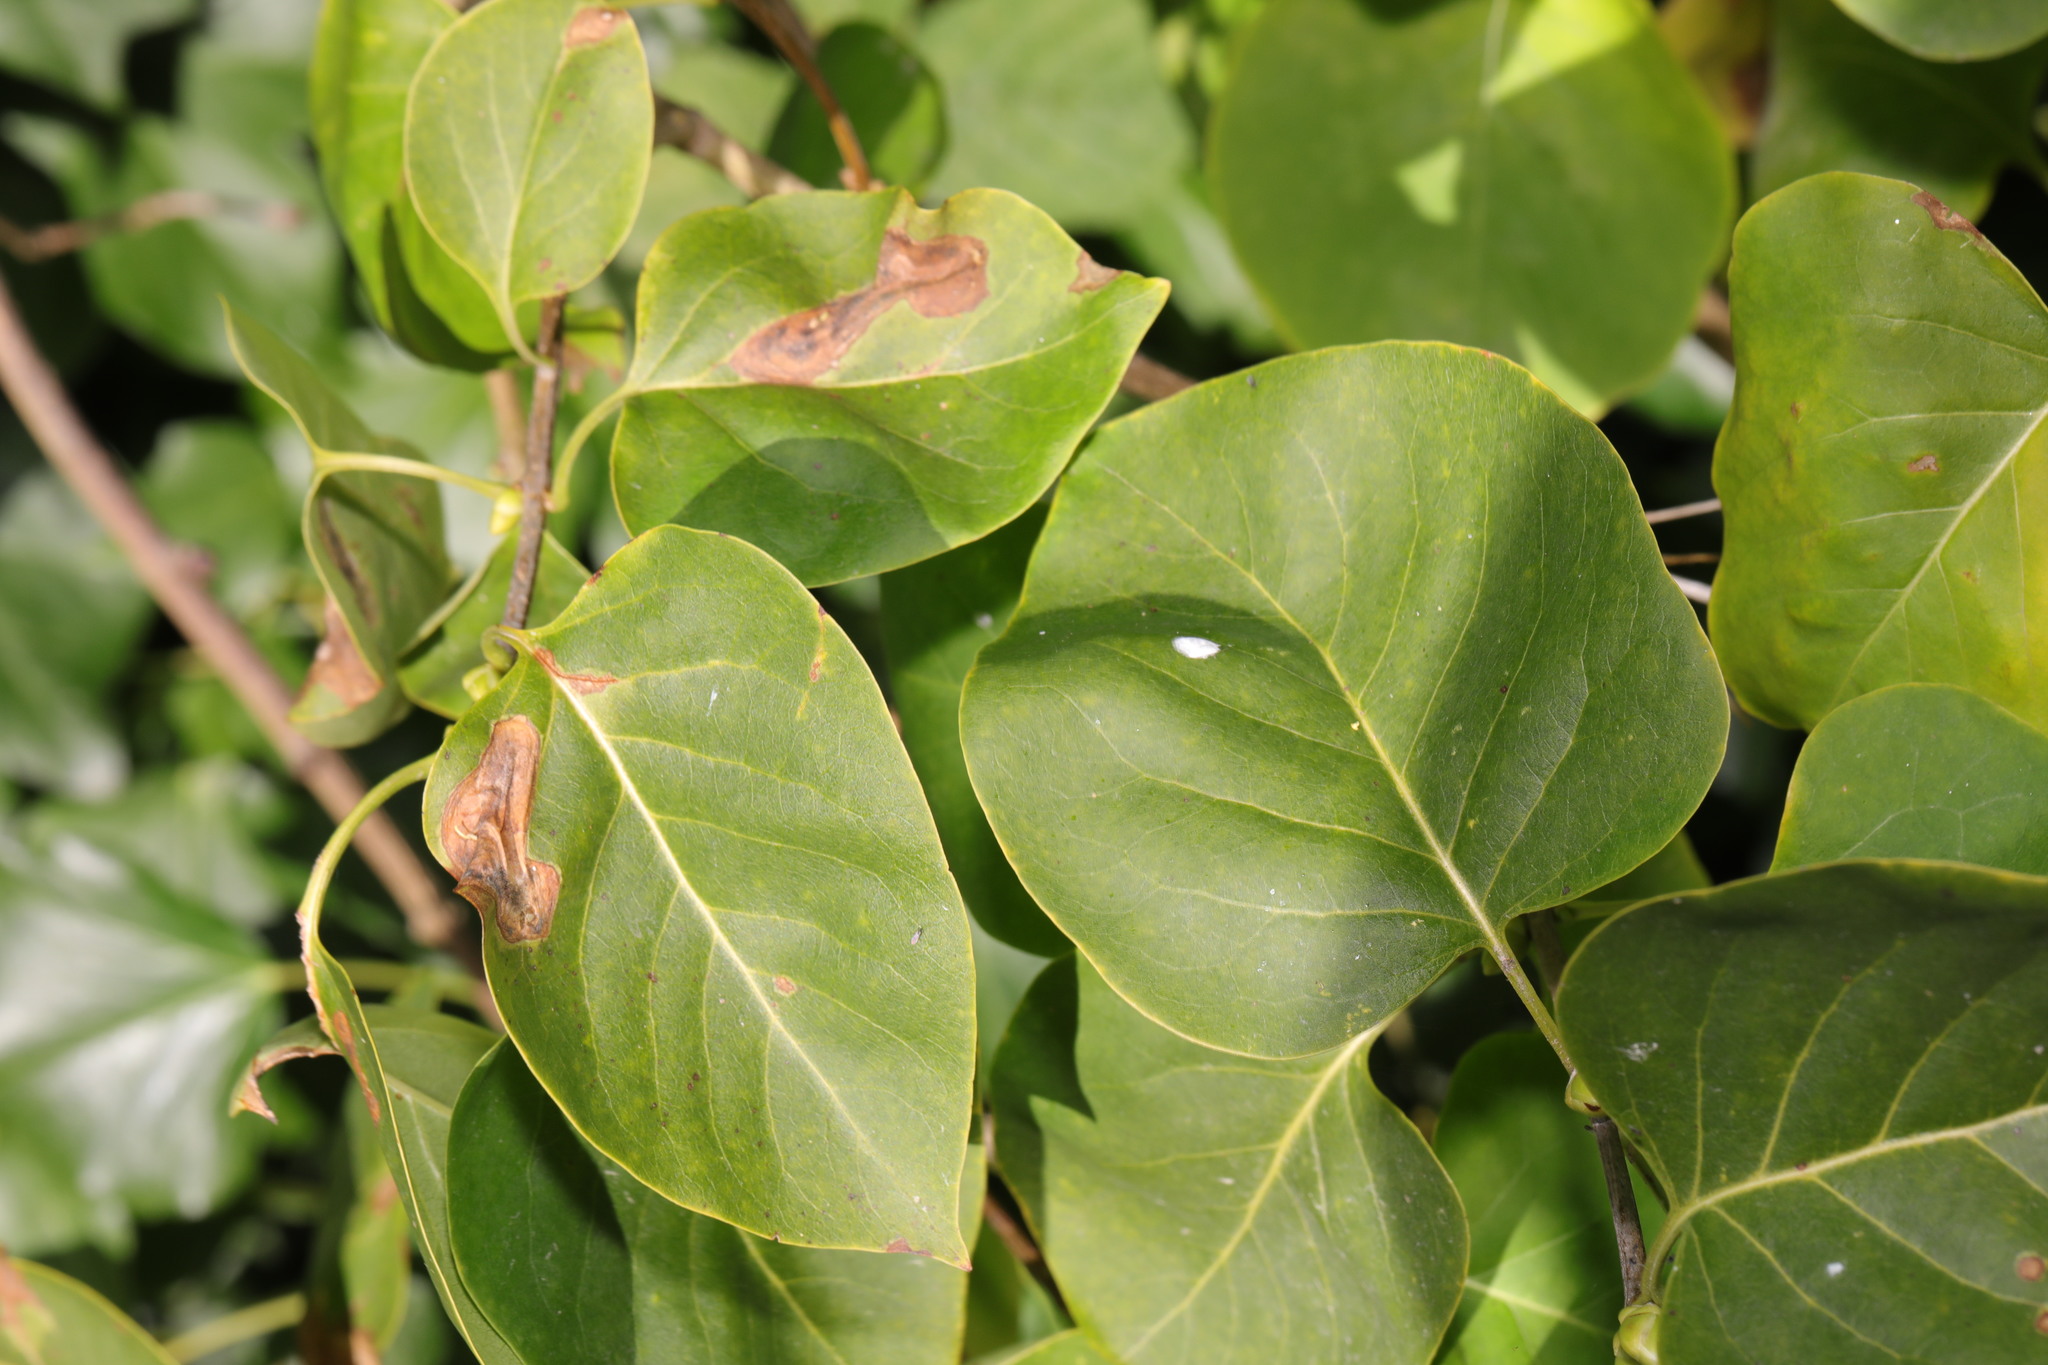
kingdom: Plantae
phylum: Tracheophyta
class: Magnoliopsida
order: Lamiales
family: Oleaceae
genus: Syringa
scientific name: Syringa vulgaris
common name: Common lilac
